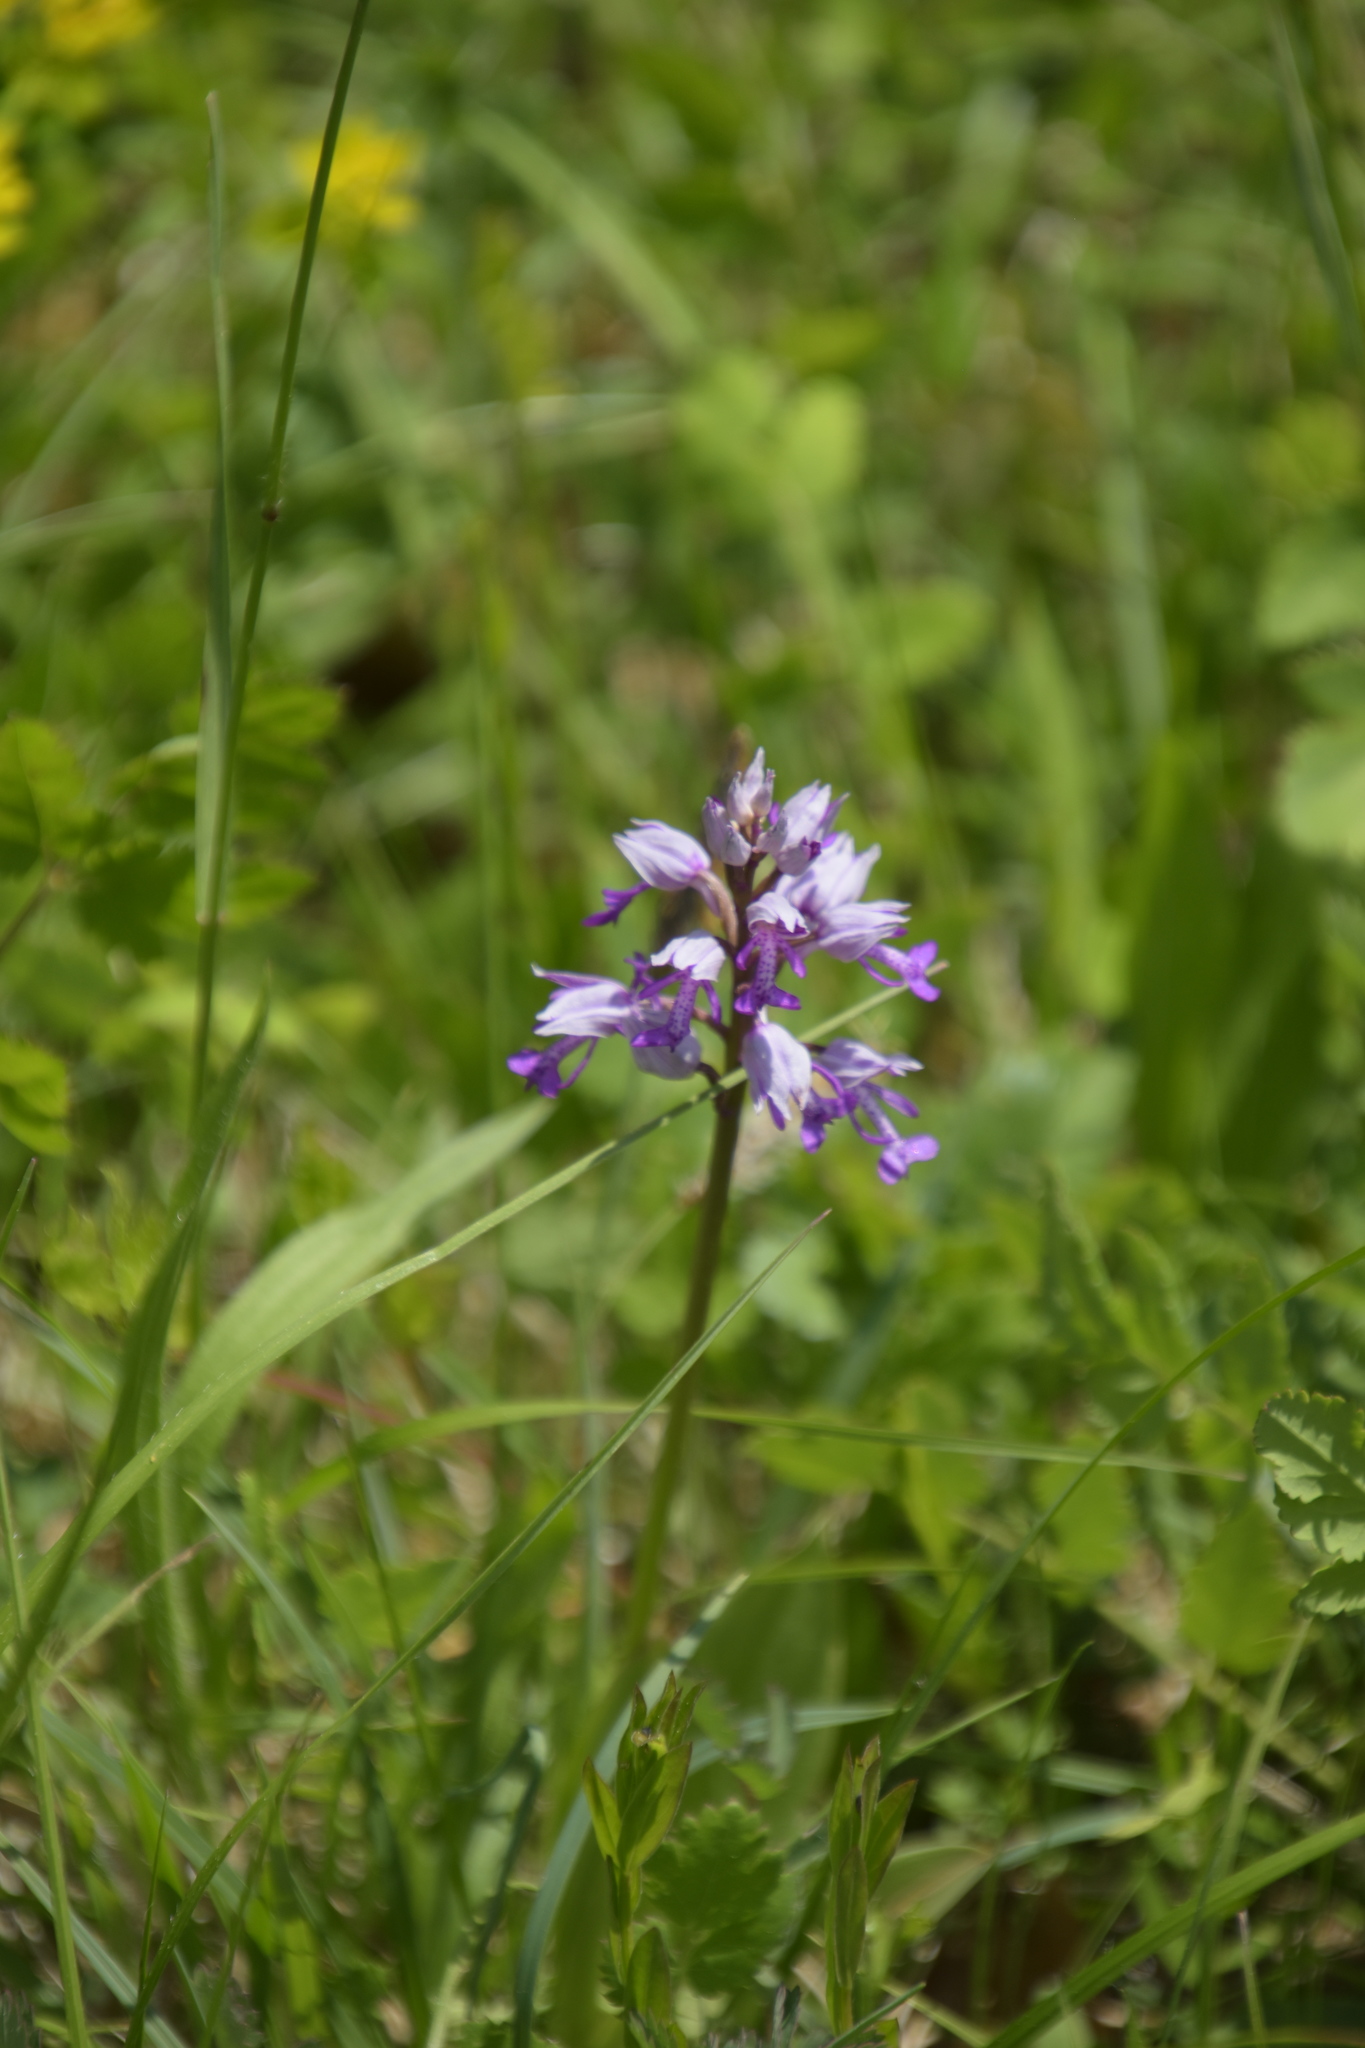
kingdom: Plantae
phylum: Tracheophyta
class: Liliopsida
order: Asparagales
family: Orchidaceae
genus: Orchis
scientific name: Orchis militaris
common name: Military orchid
